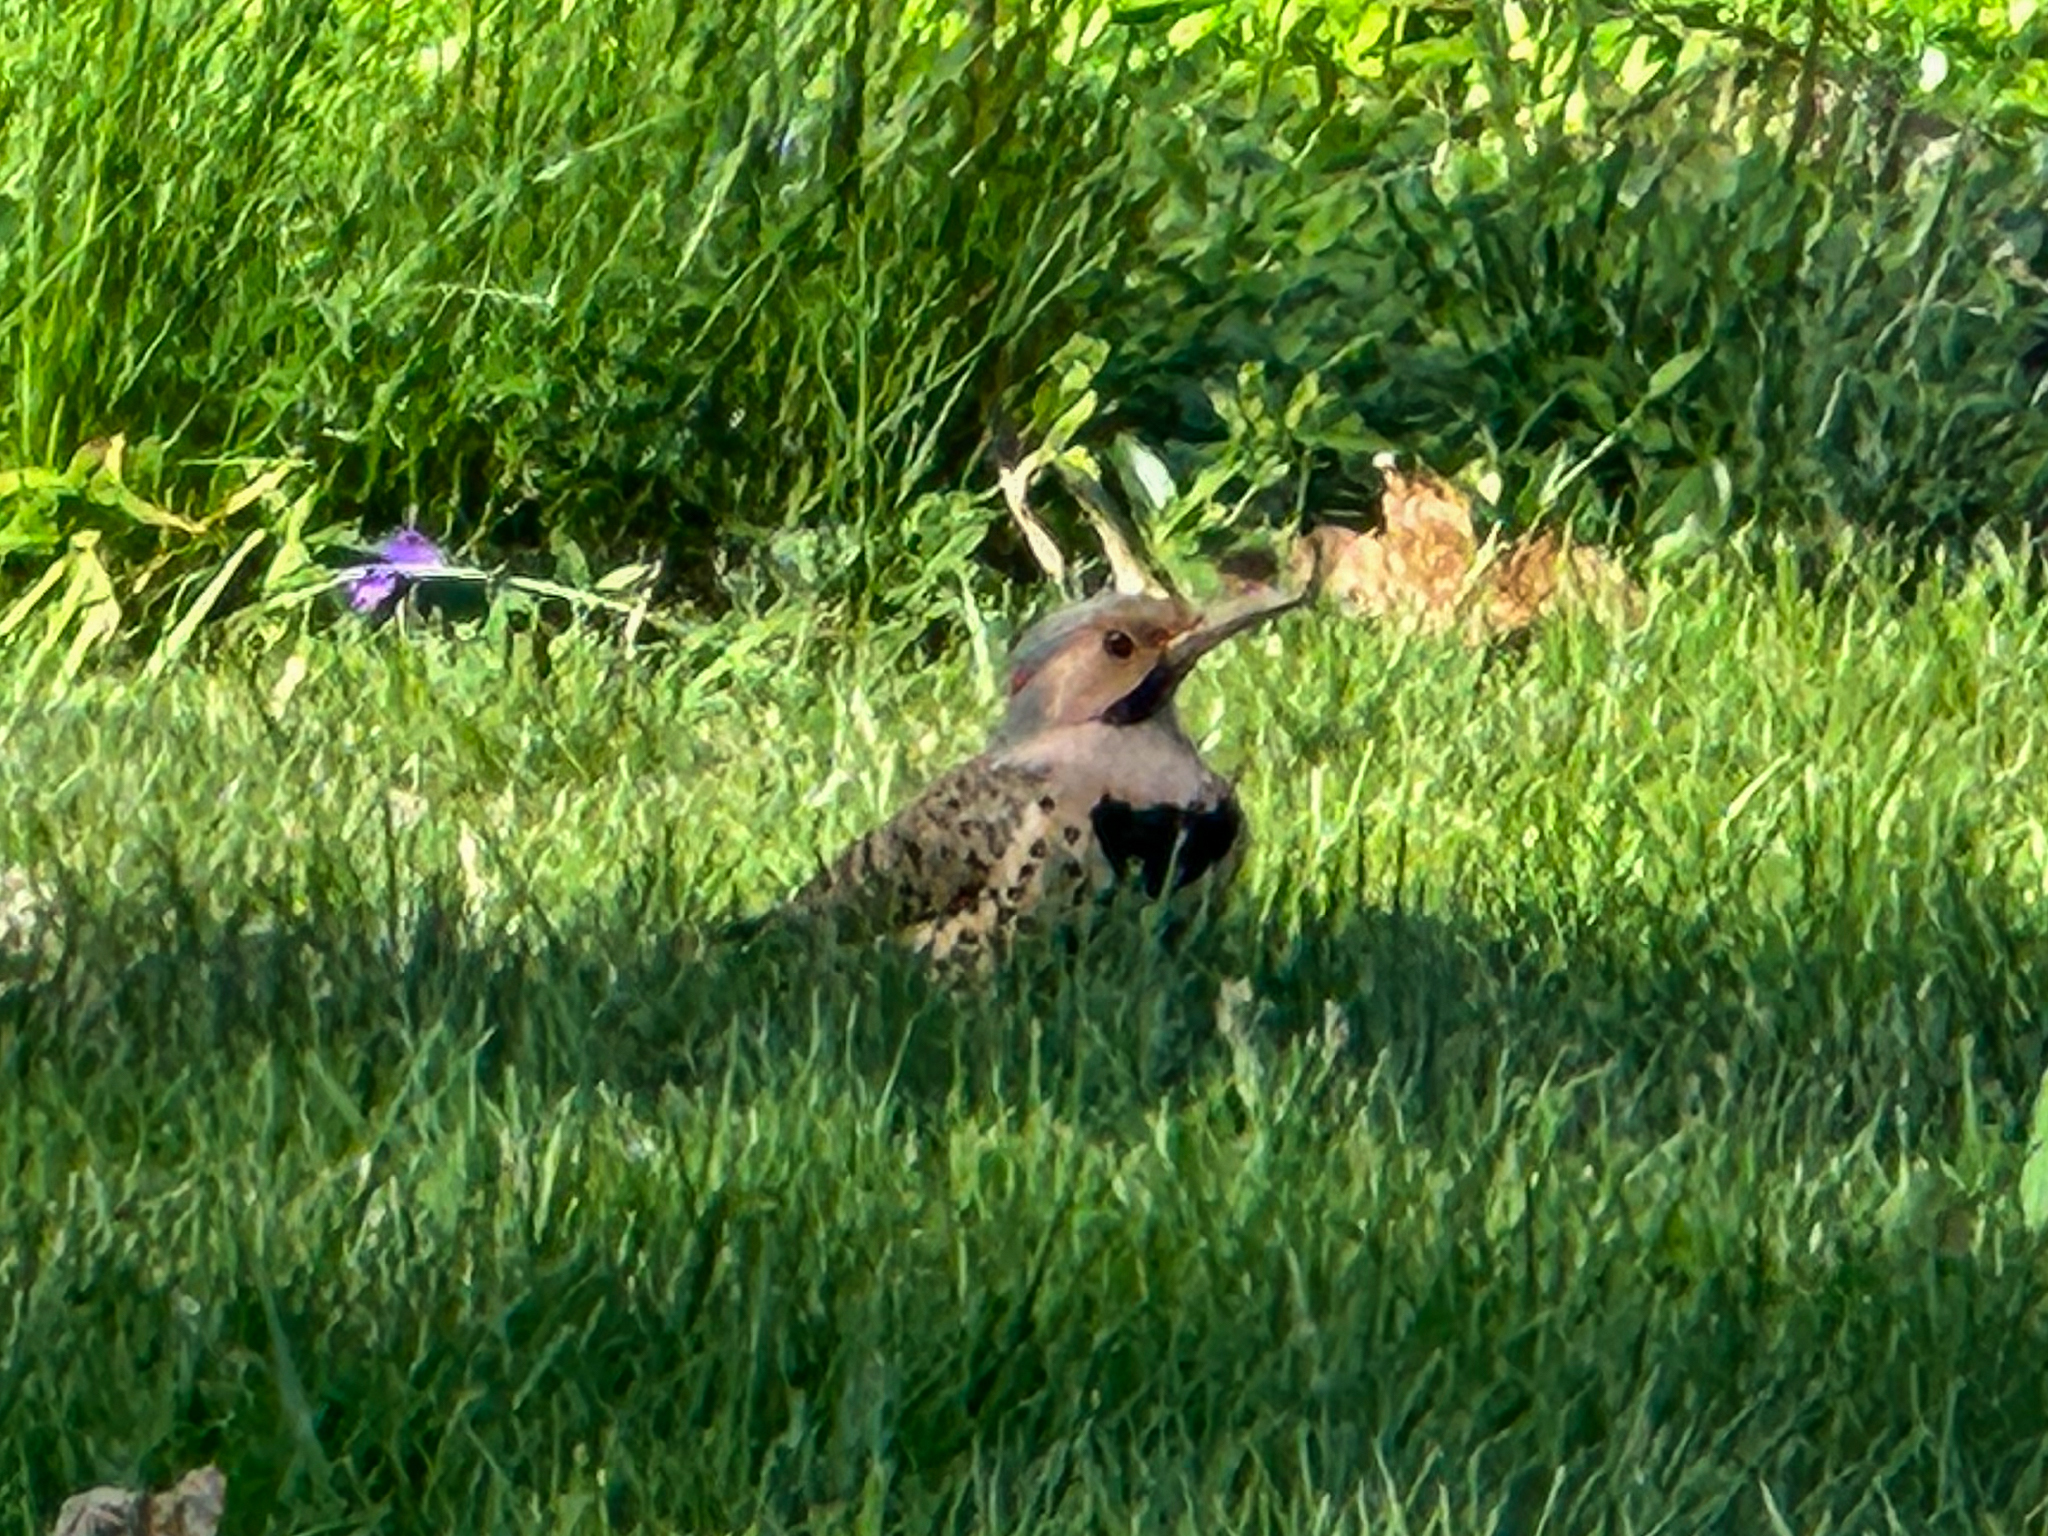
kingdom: Animalia
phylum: Chordata
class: Aves
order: Piciformes
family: Picidae
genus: Colaptes
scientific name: Colaptes auratus
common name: Northern flicker
